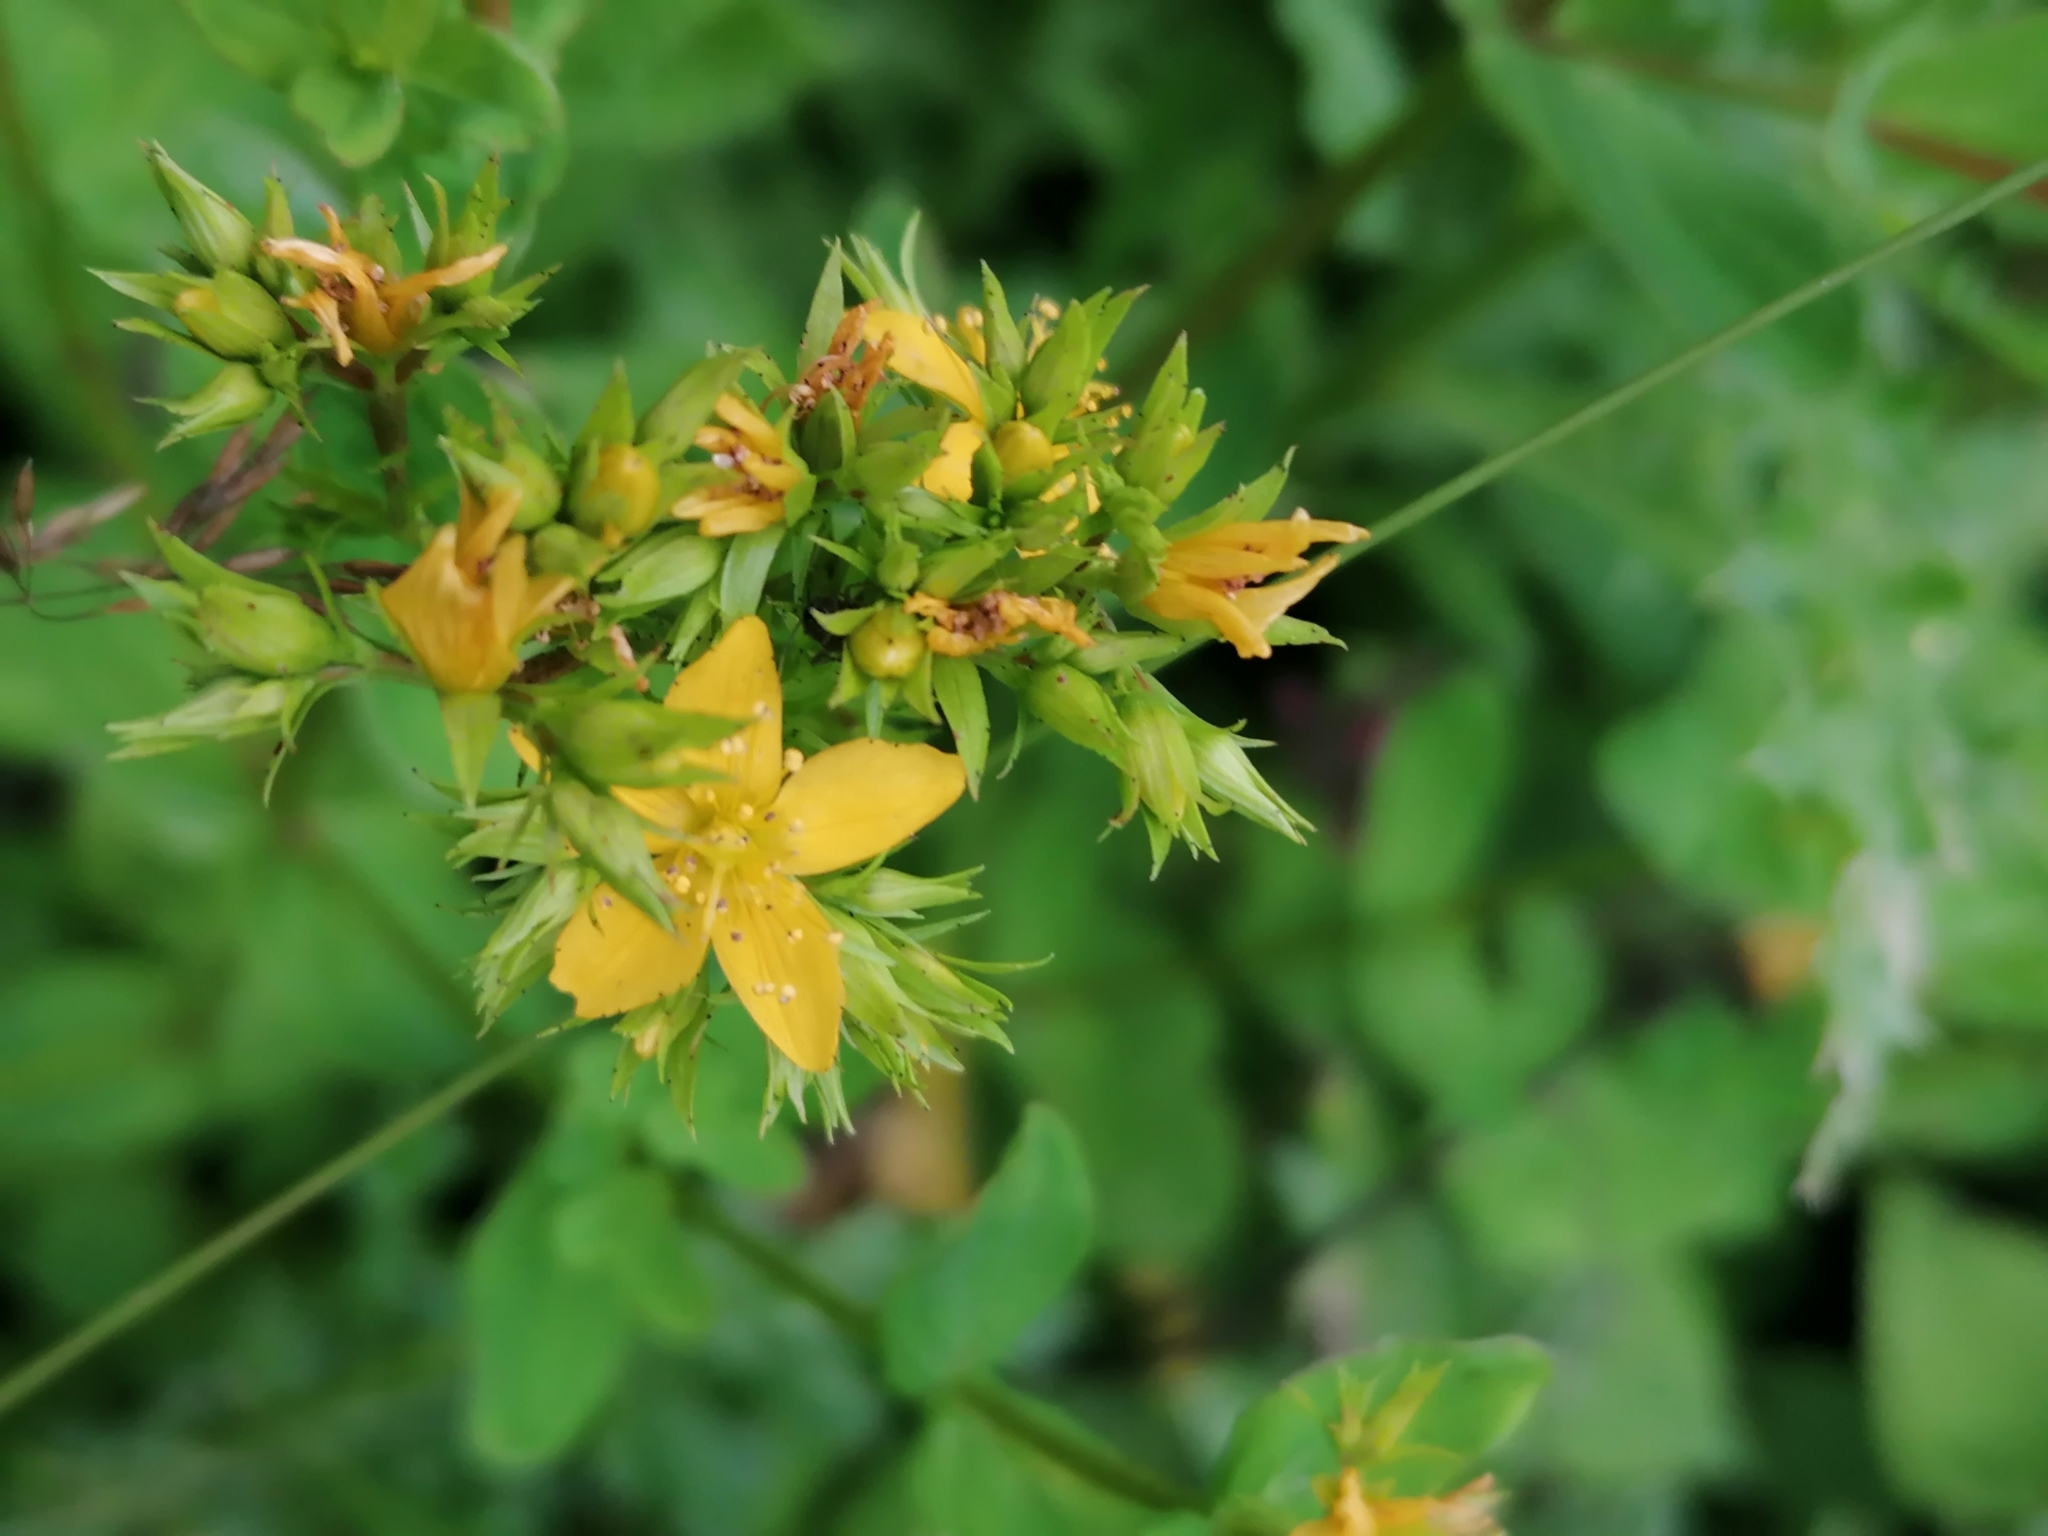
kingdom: Plantae
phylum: Tracheophyta
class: Magnoliopsida
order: Malpighiales
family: Hypericaceae
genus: Hypericum
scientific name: Hypericum perforatum
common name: Common st. johnswort
